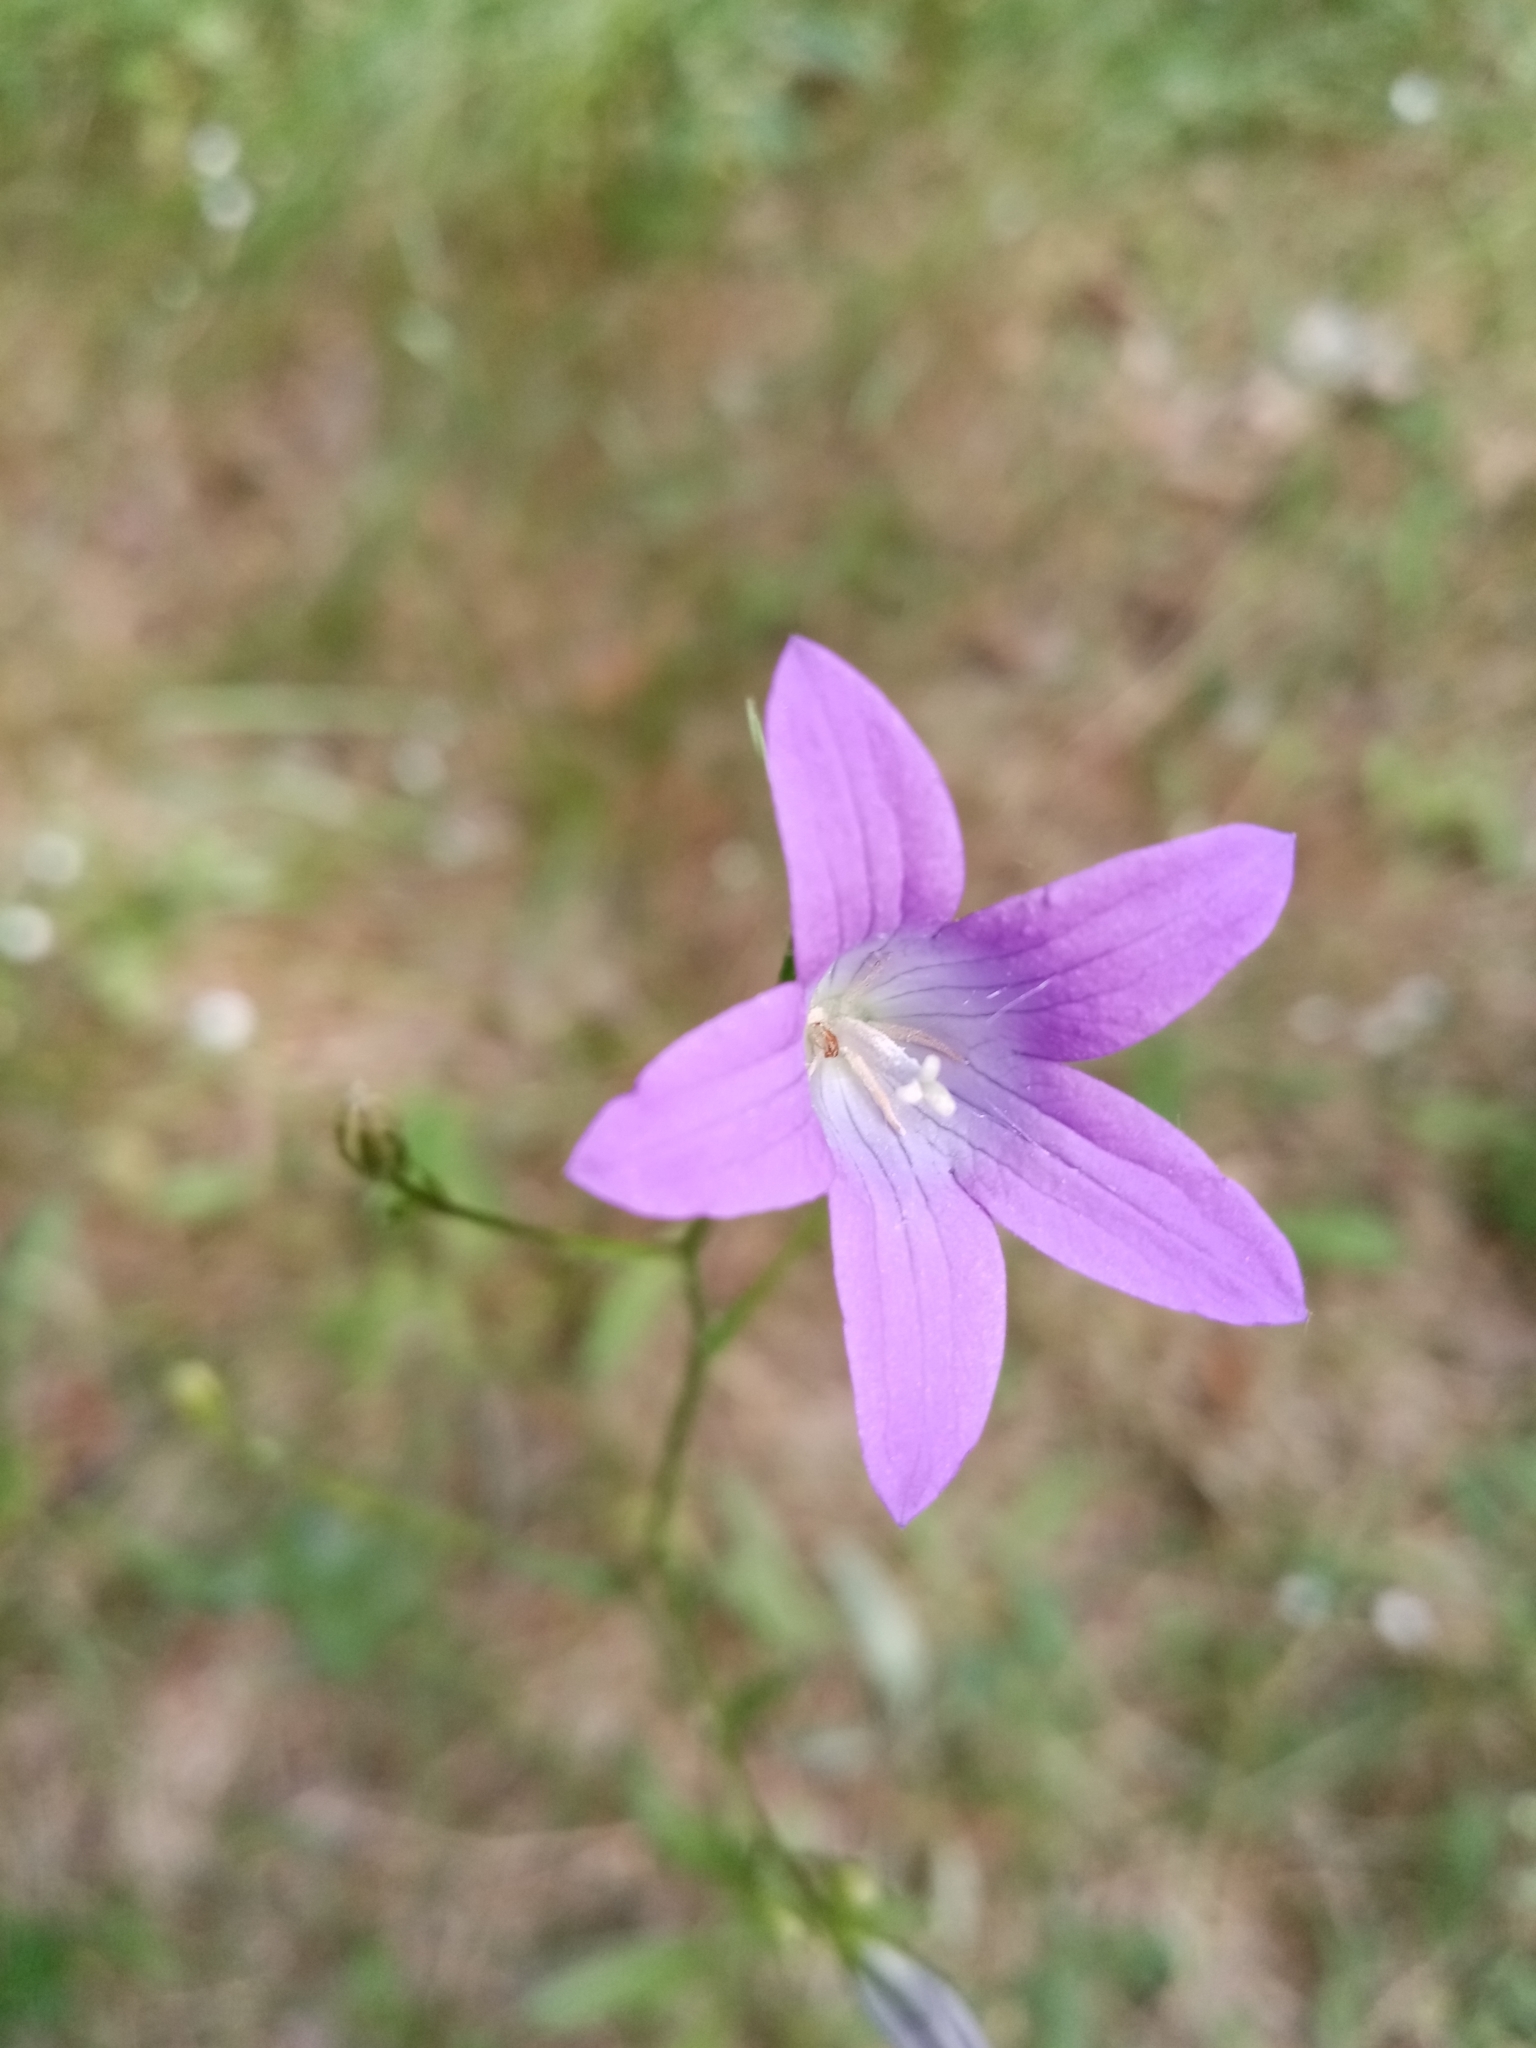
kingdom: Plantae
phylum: Tracheophyta
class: Magnoliopsida
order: Asterales
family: Campanulaceae
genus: Campanula
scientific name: Campanula patula
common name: Spreading bellflower
